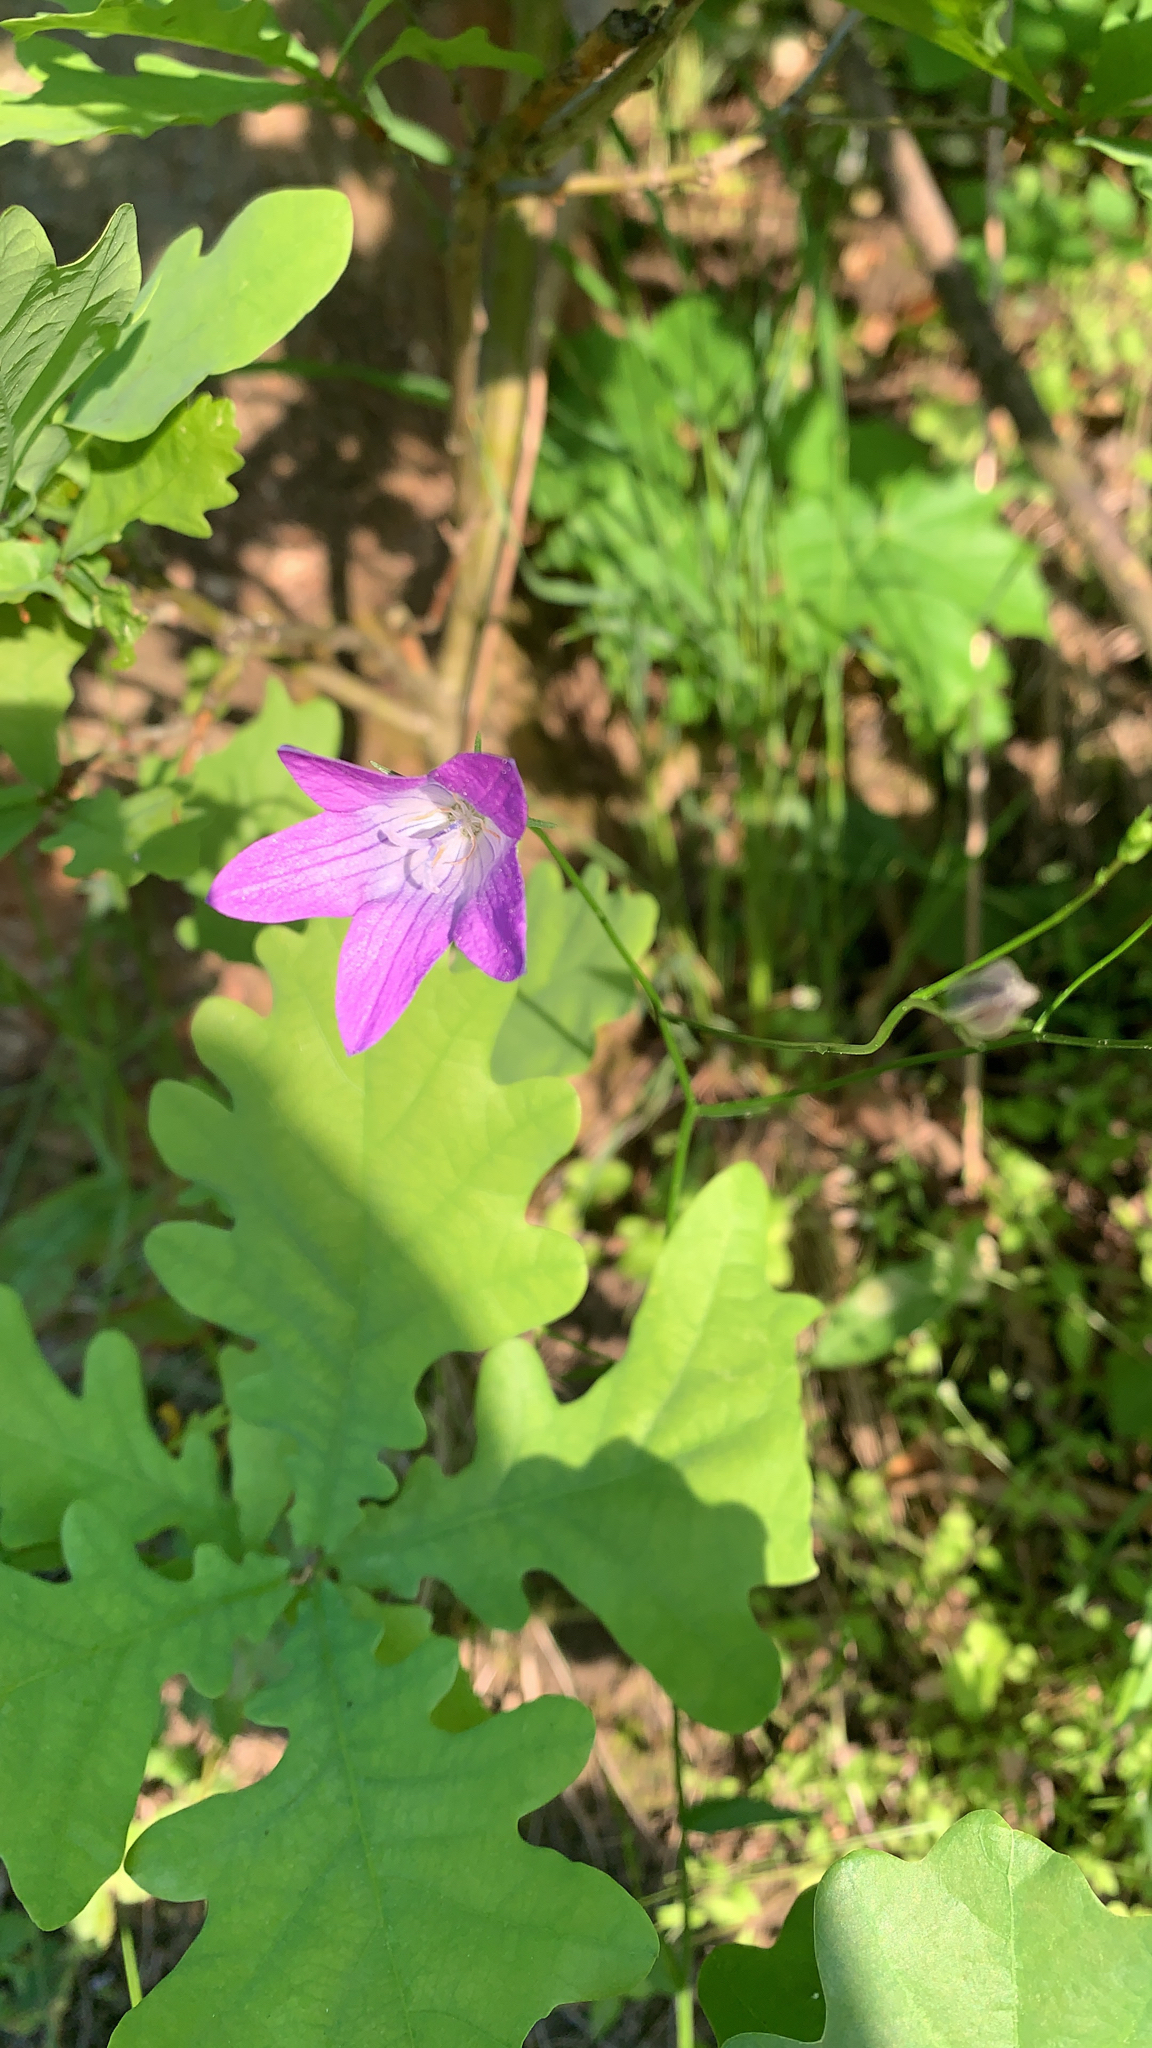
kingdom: Plantae
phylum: Tracheophyta
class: Magnoliopsida
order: Asterales
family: Campanulaceae
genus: Campanula
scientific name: Campanula patula
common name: Spreading bellflower
